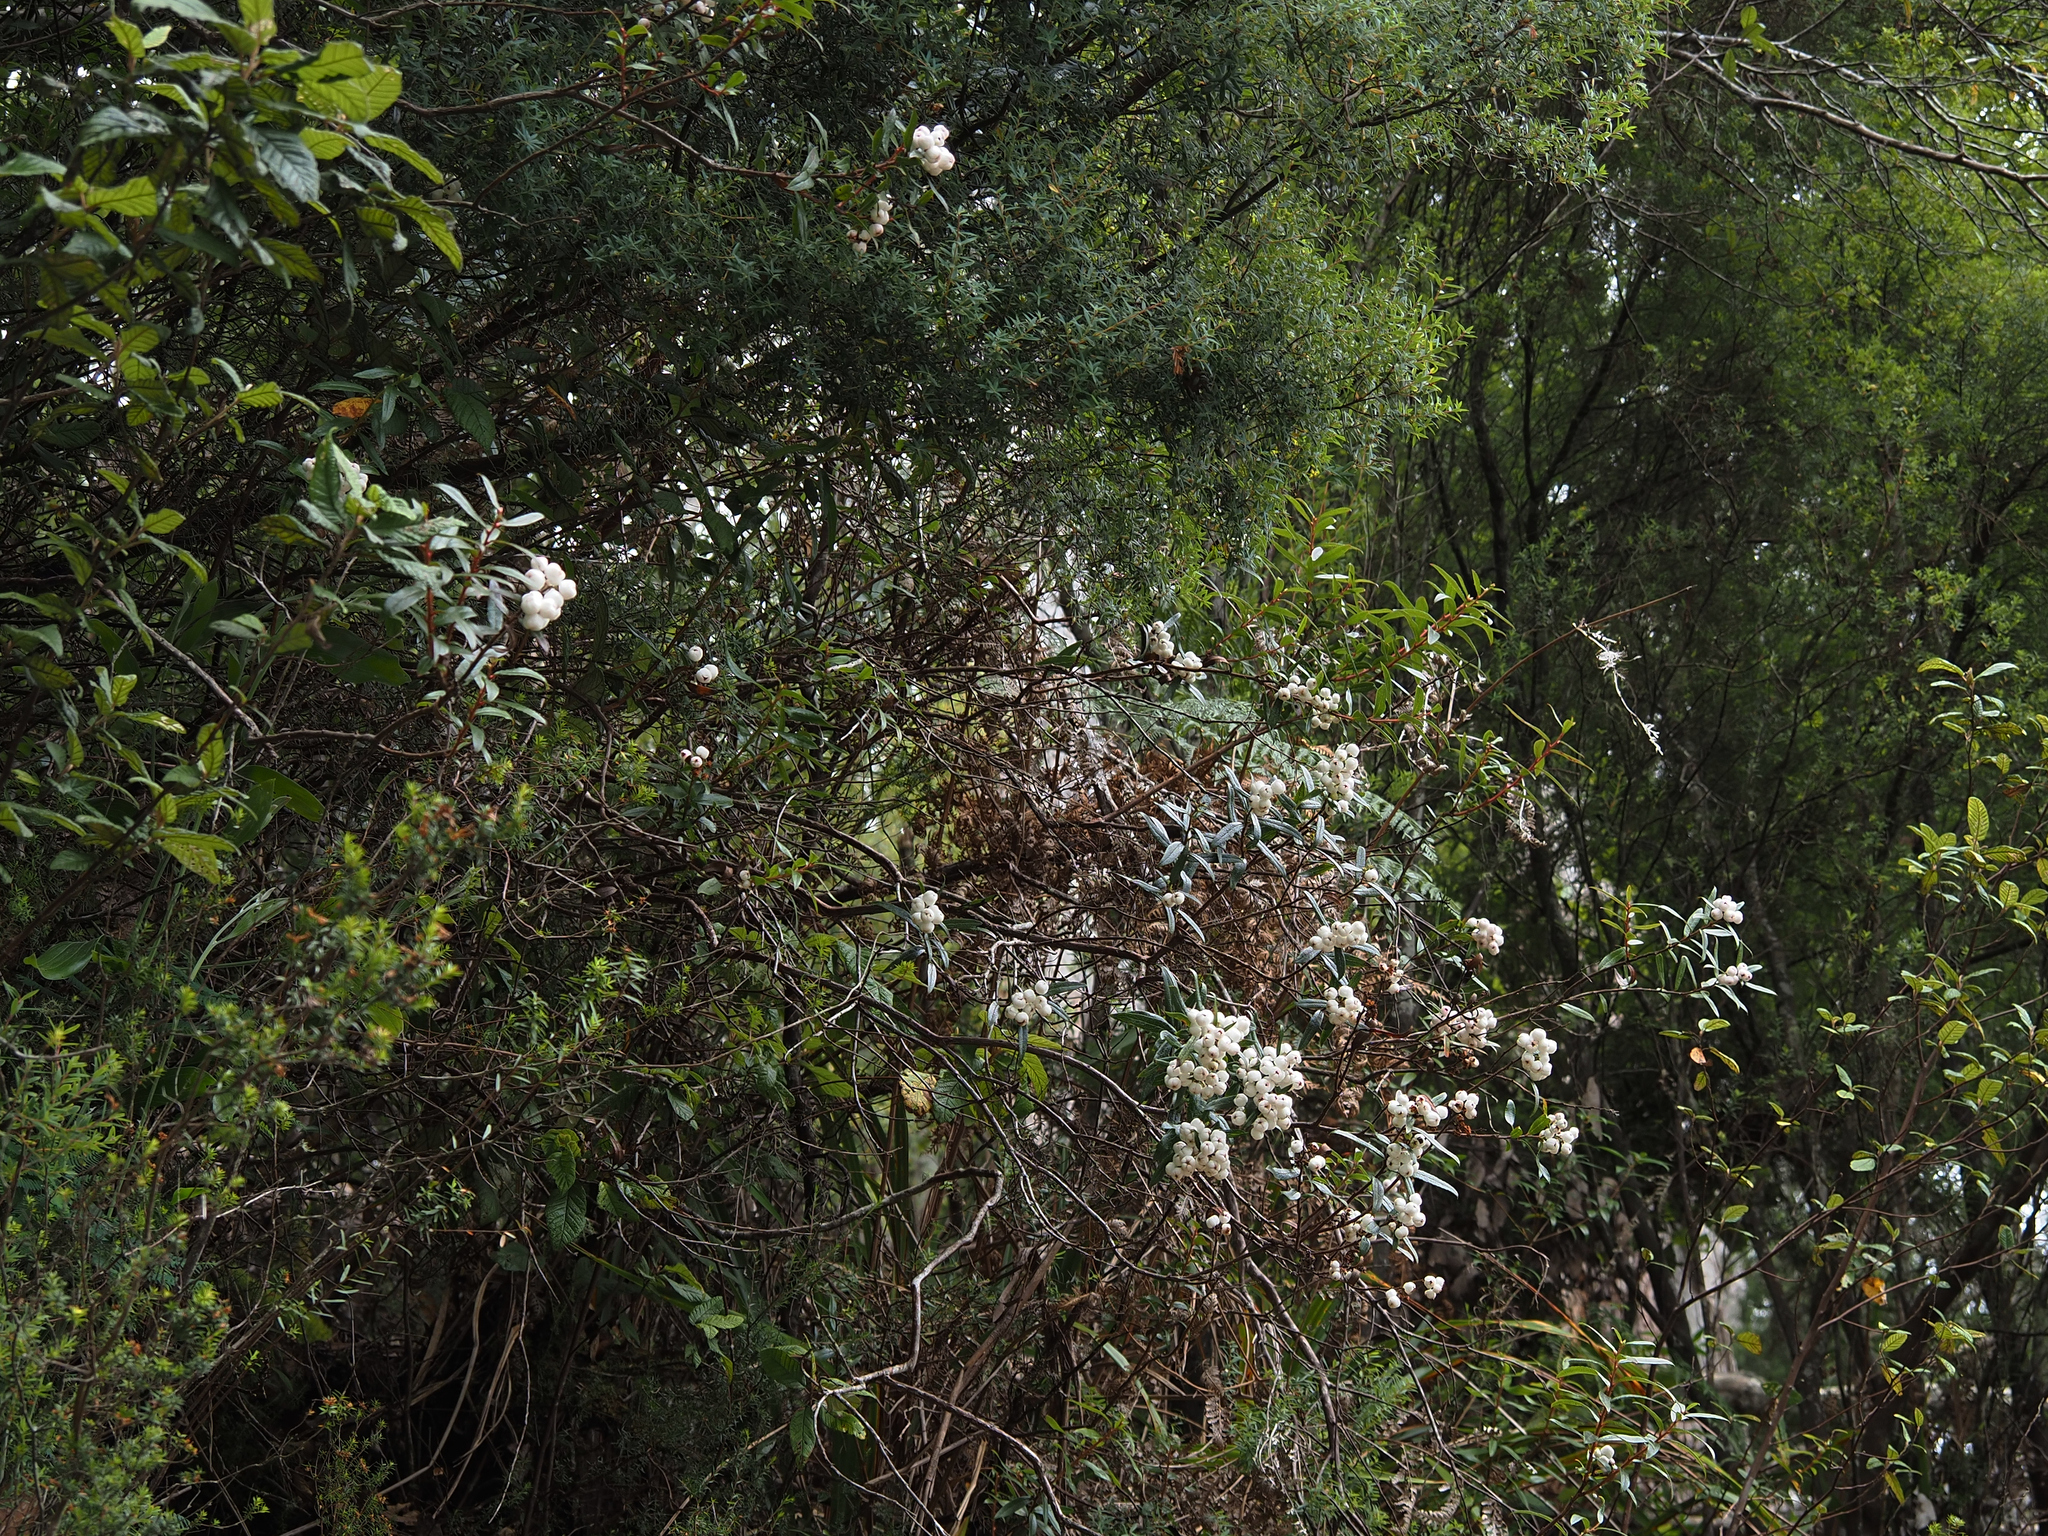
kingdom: Plantae
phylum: Tracheophyta
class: Magnoliopsida
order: Ericales
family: Ericaceae
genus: Gaultheria
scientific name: Gaultheria hispida
